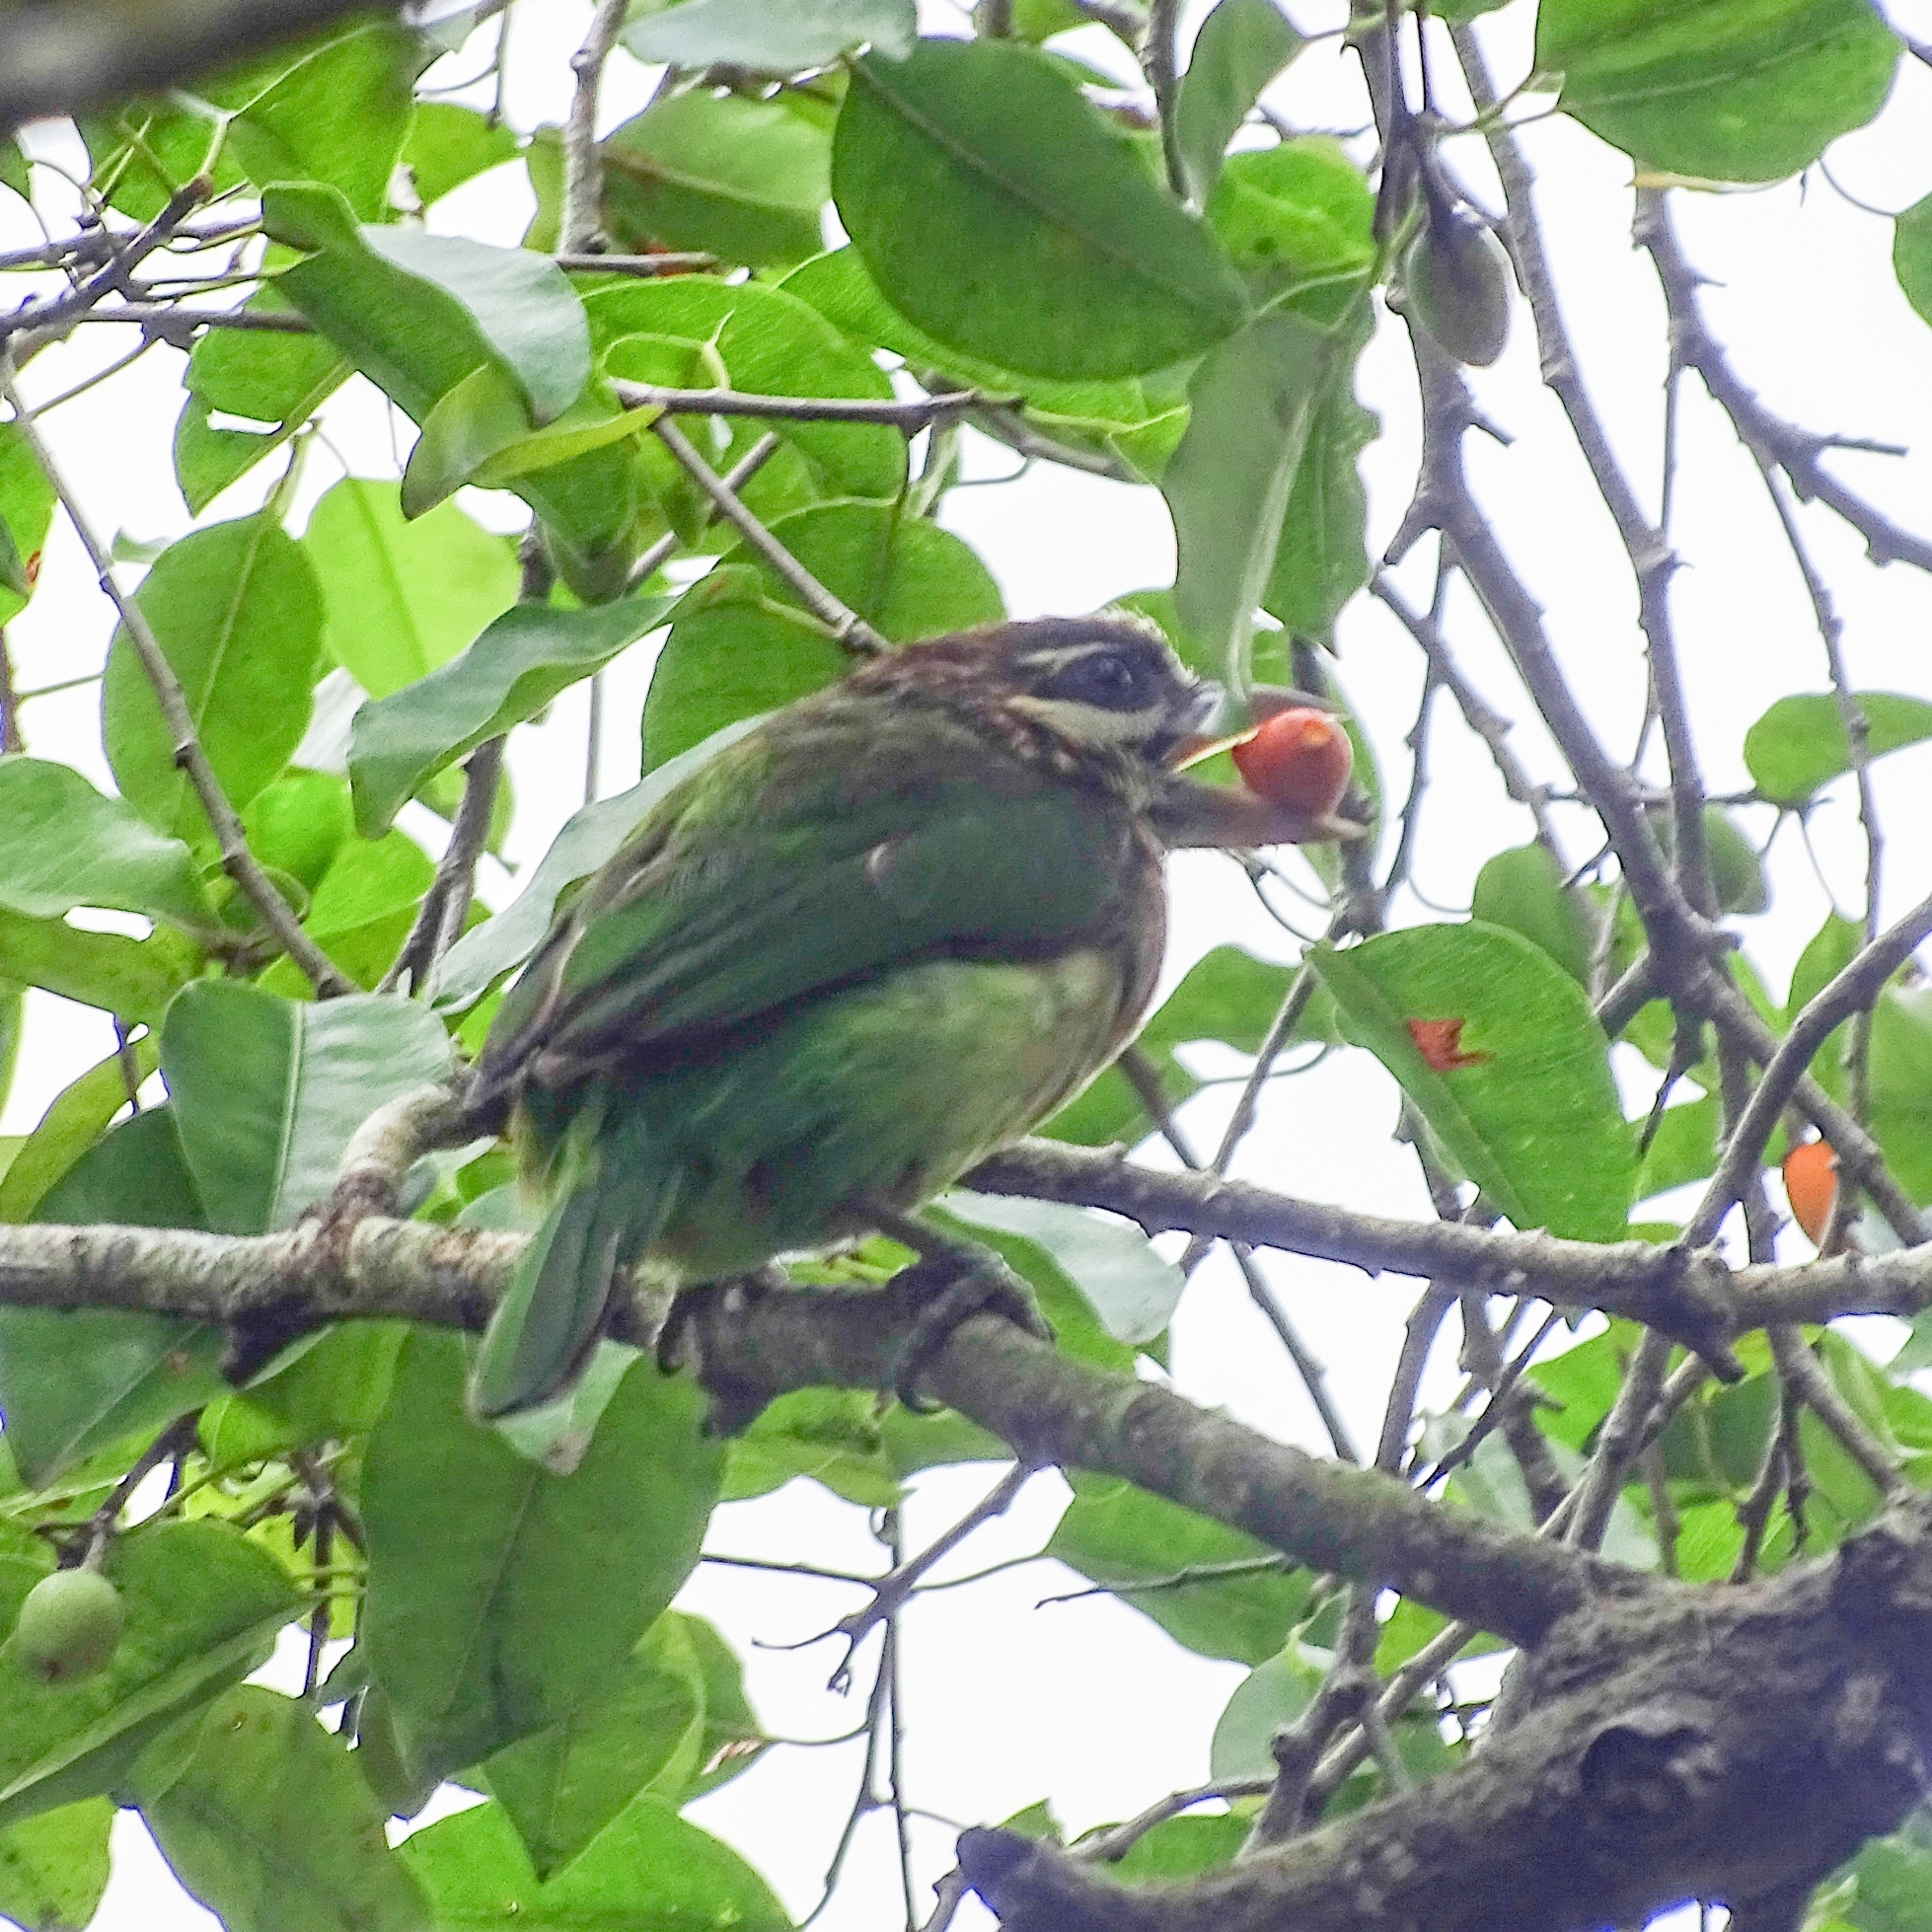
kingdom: Animalia
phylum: Chordata
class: Aves
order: Piciformes
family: Megalaimidae
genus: Psilopogon
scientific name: Psilopogon viridis
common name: White-cheeked barbet
